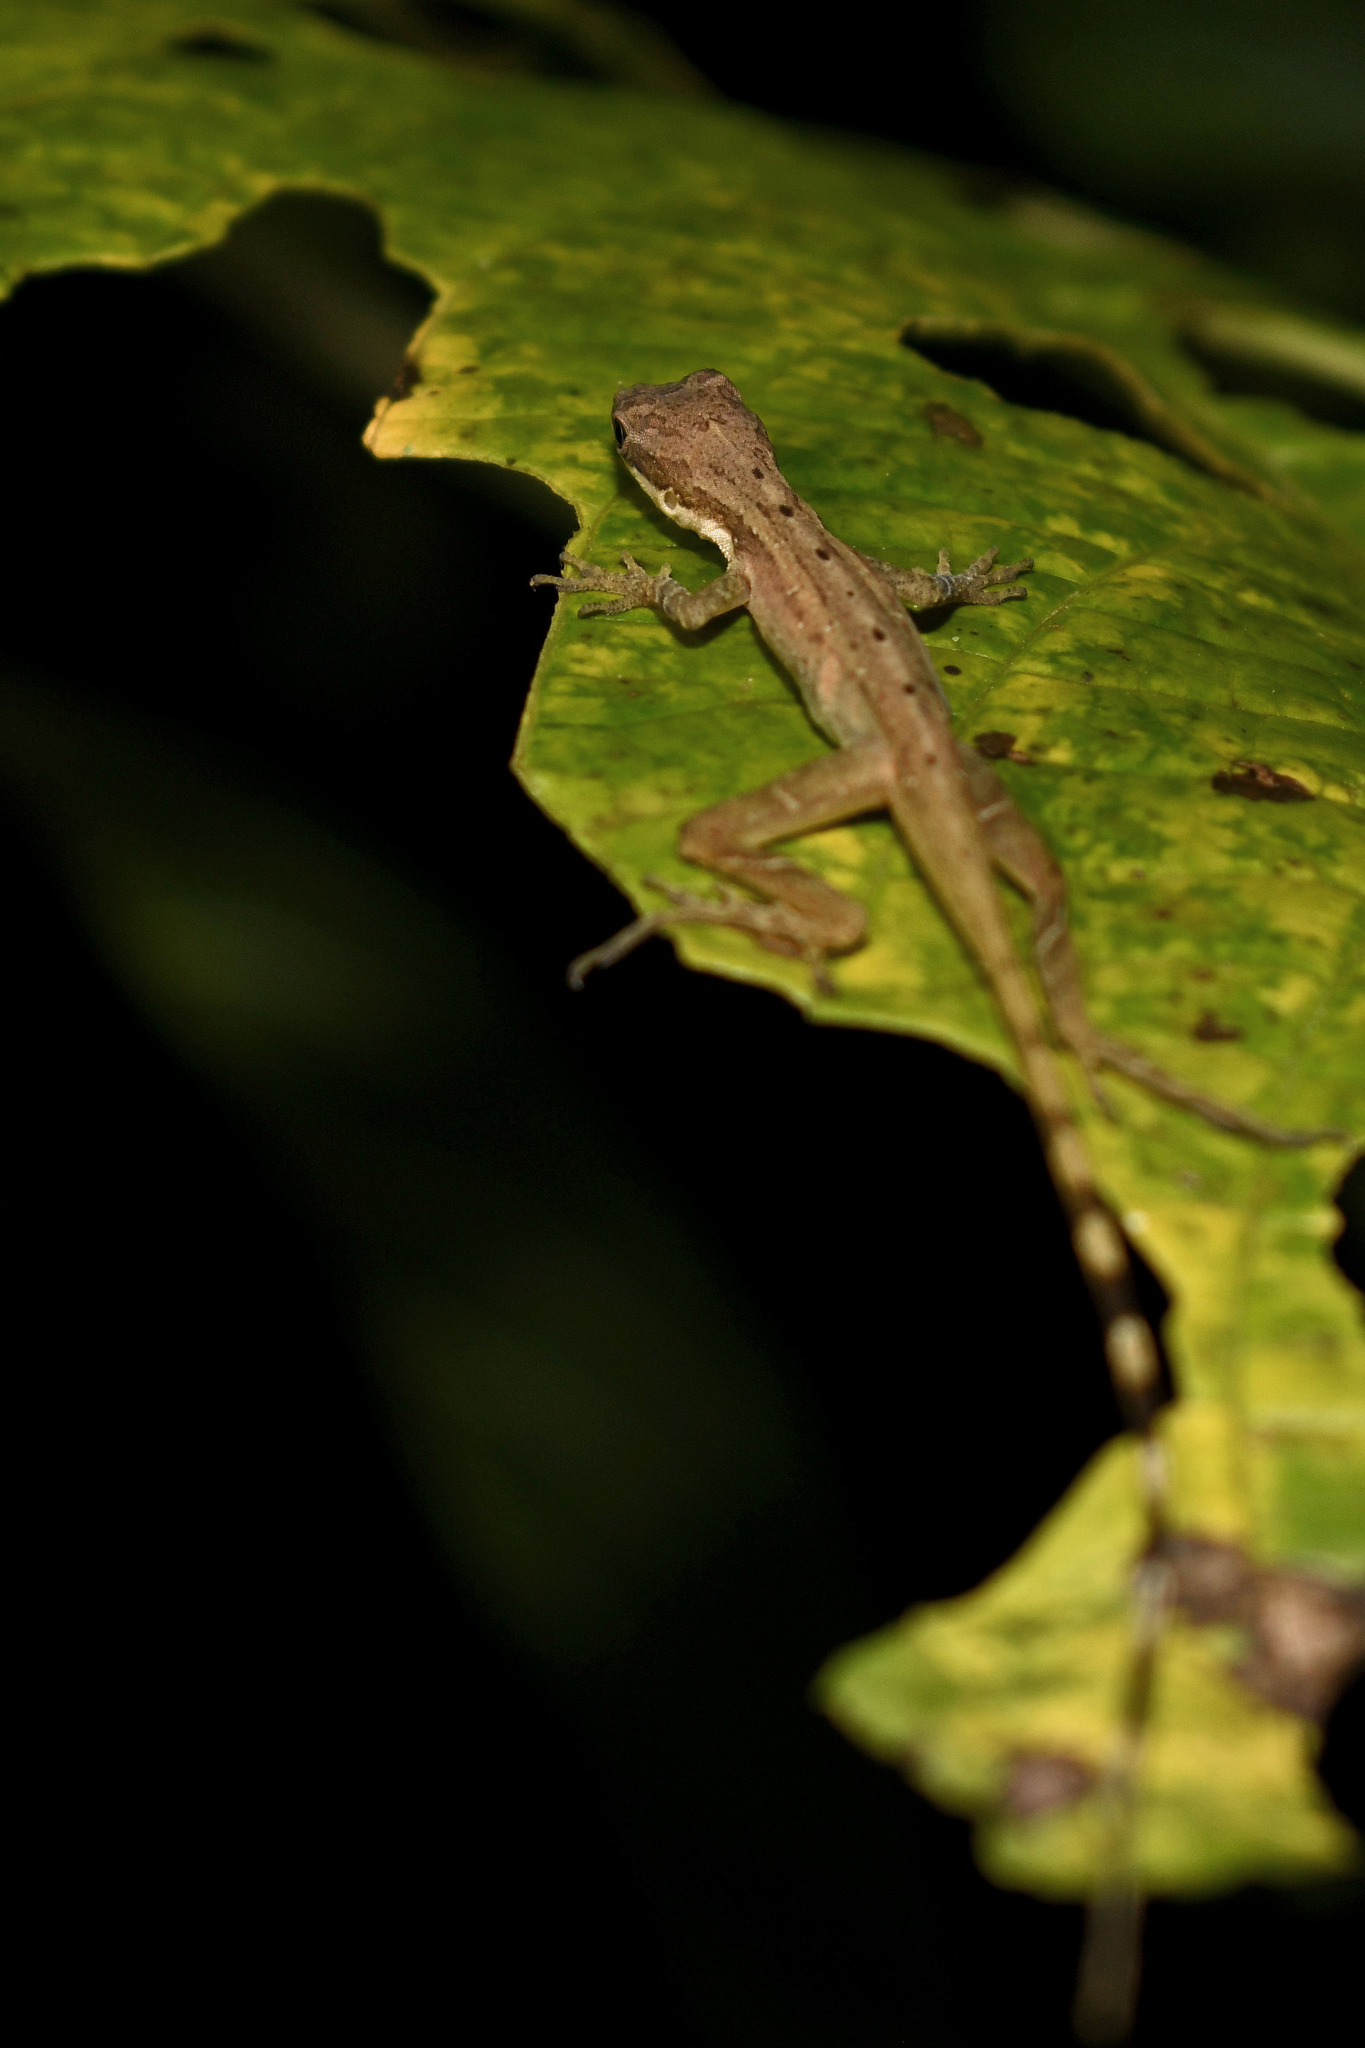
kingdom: Animalia
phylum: Chordata
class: Squamata
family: Dactyloidae
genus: Anolis
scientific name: Anolis limifrons
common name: Border anole
